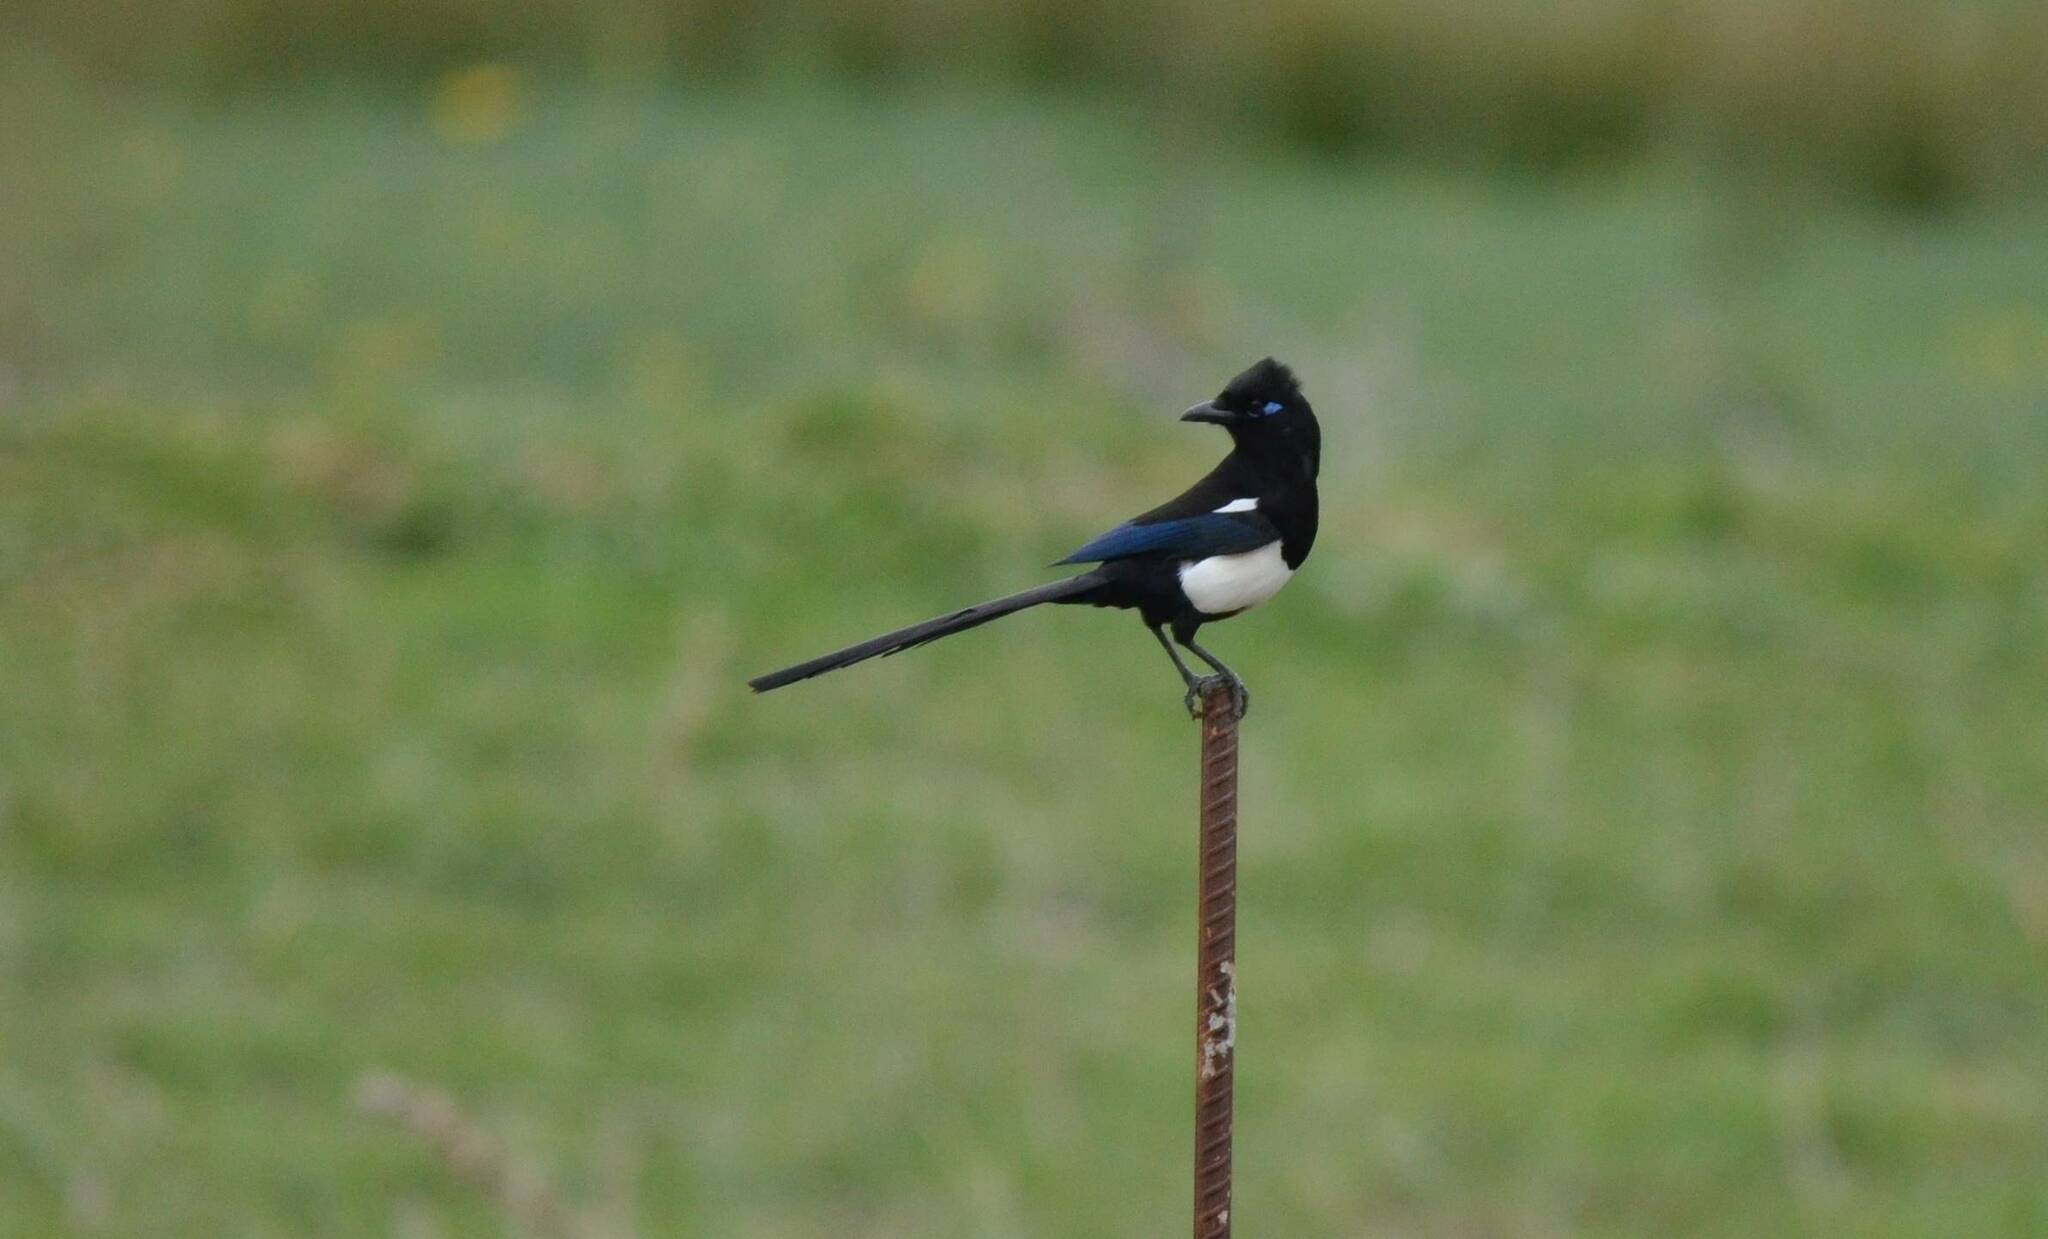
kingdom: Animalia
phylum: Chordata
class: Aves
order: Passeriformes
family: Corvidae
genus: Pica
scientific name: Pica mauritanica
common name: Maghreb magpie
